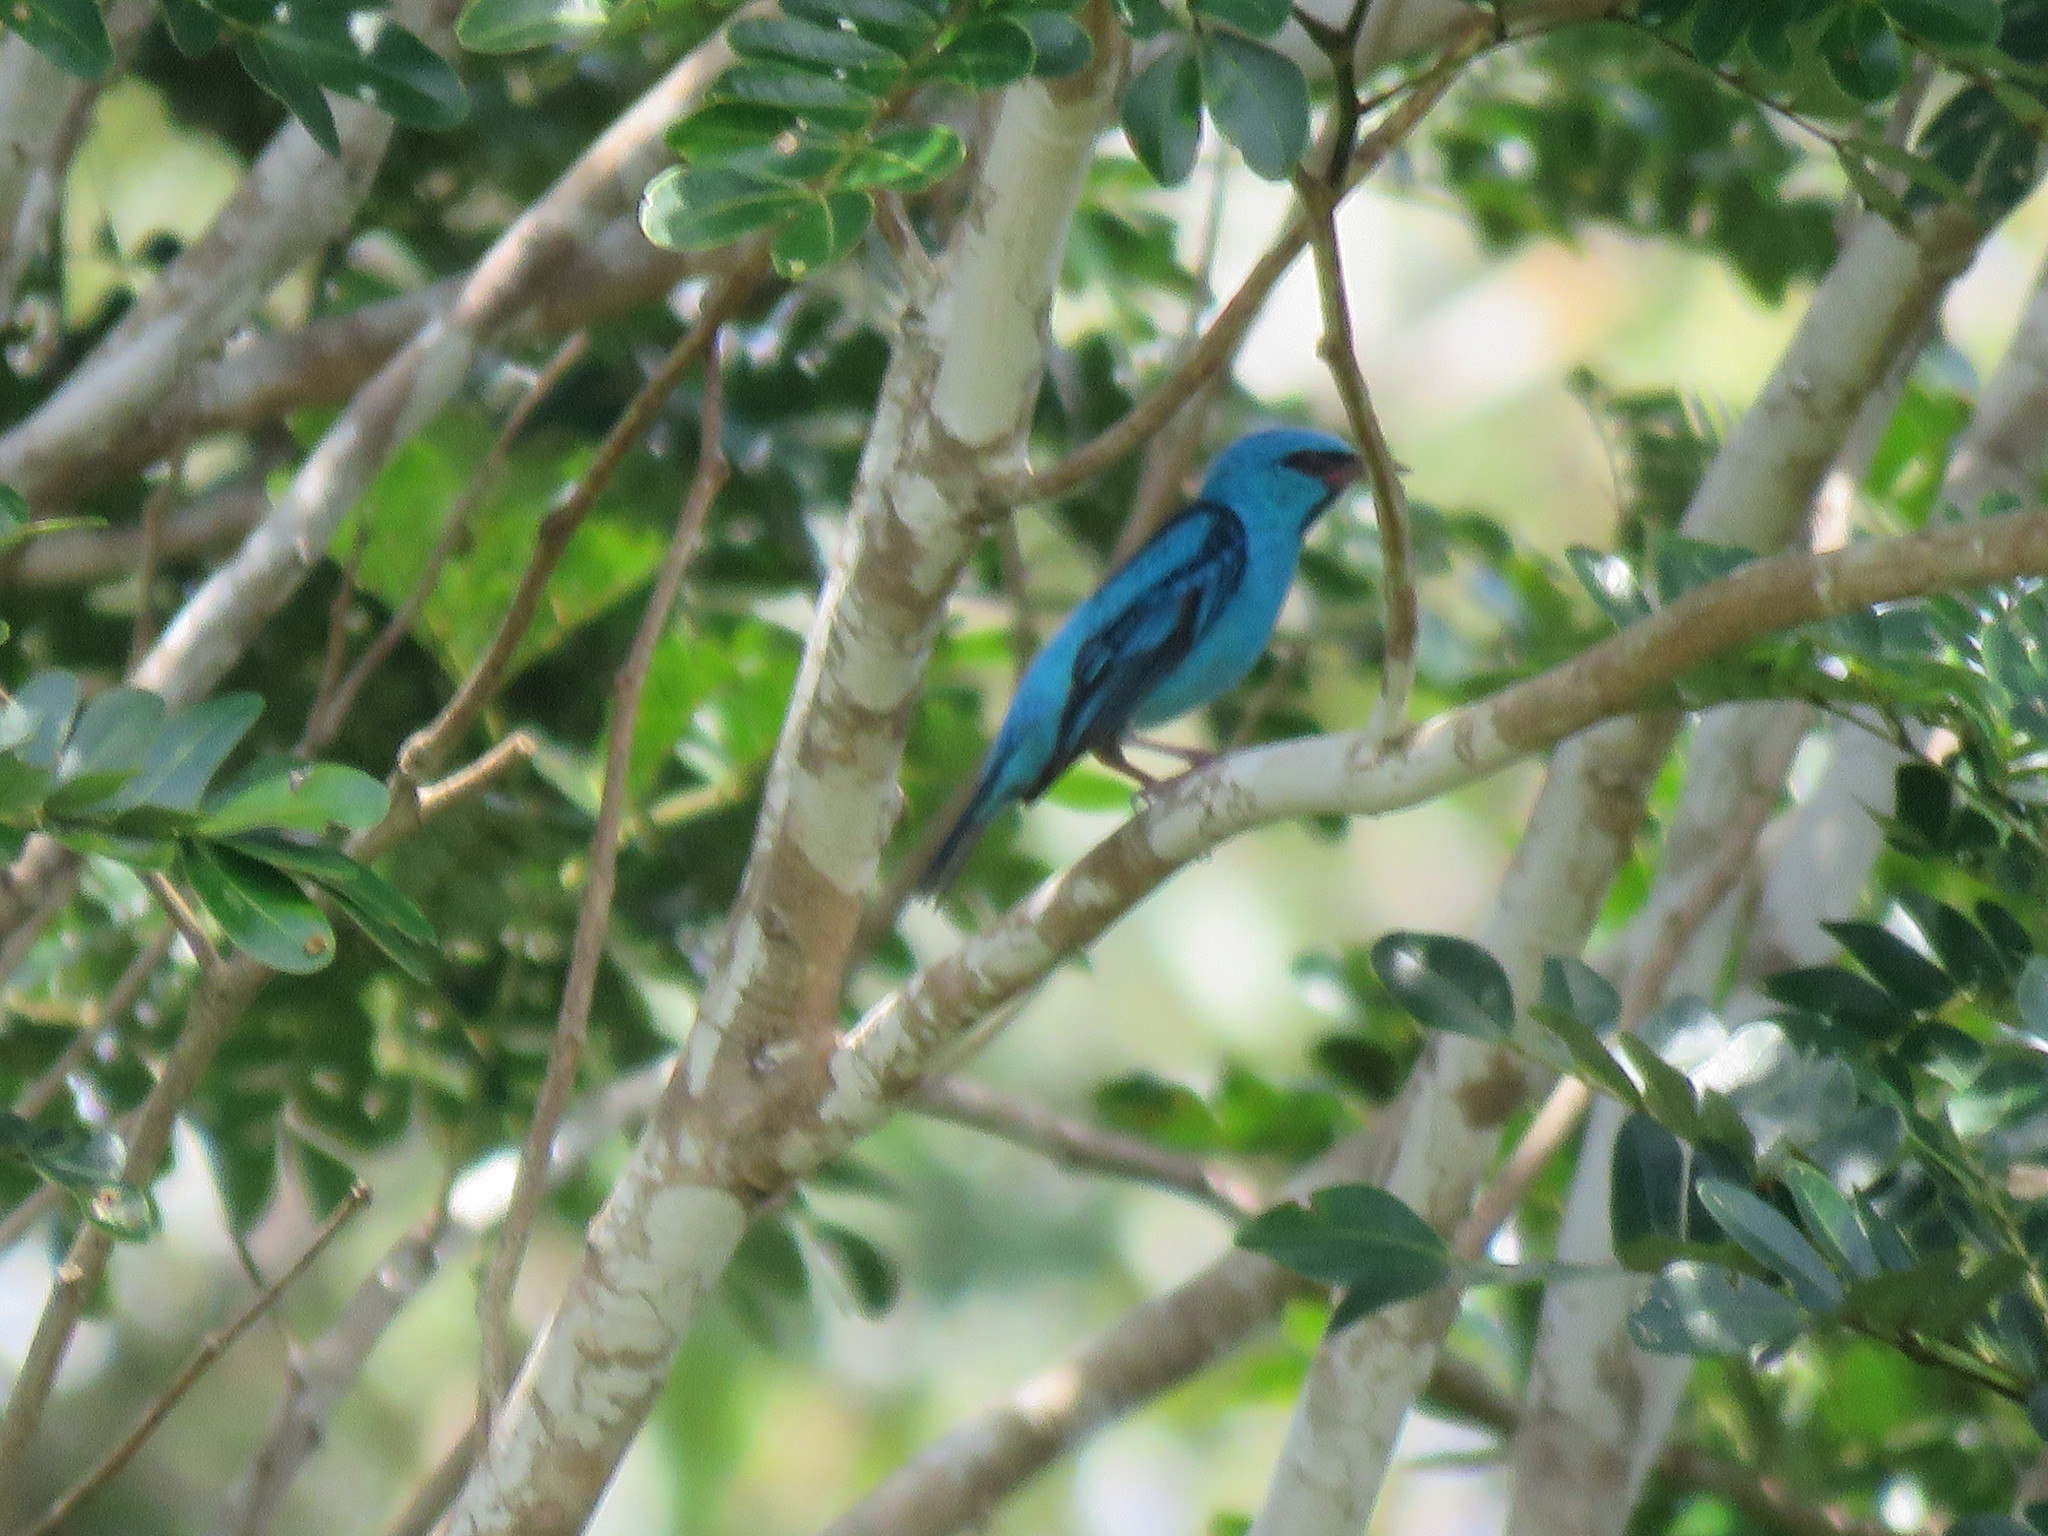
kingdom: Animalia
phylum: Chordata
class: Aves
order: Passeriformes
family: Thraupidae
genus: Dacnis
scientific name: Dacnis cayana
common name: Blue dacnis
